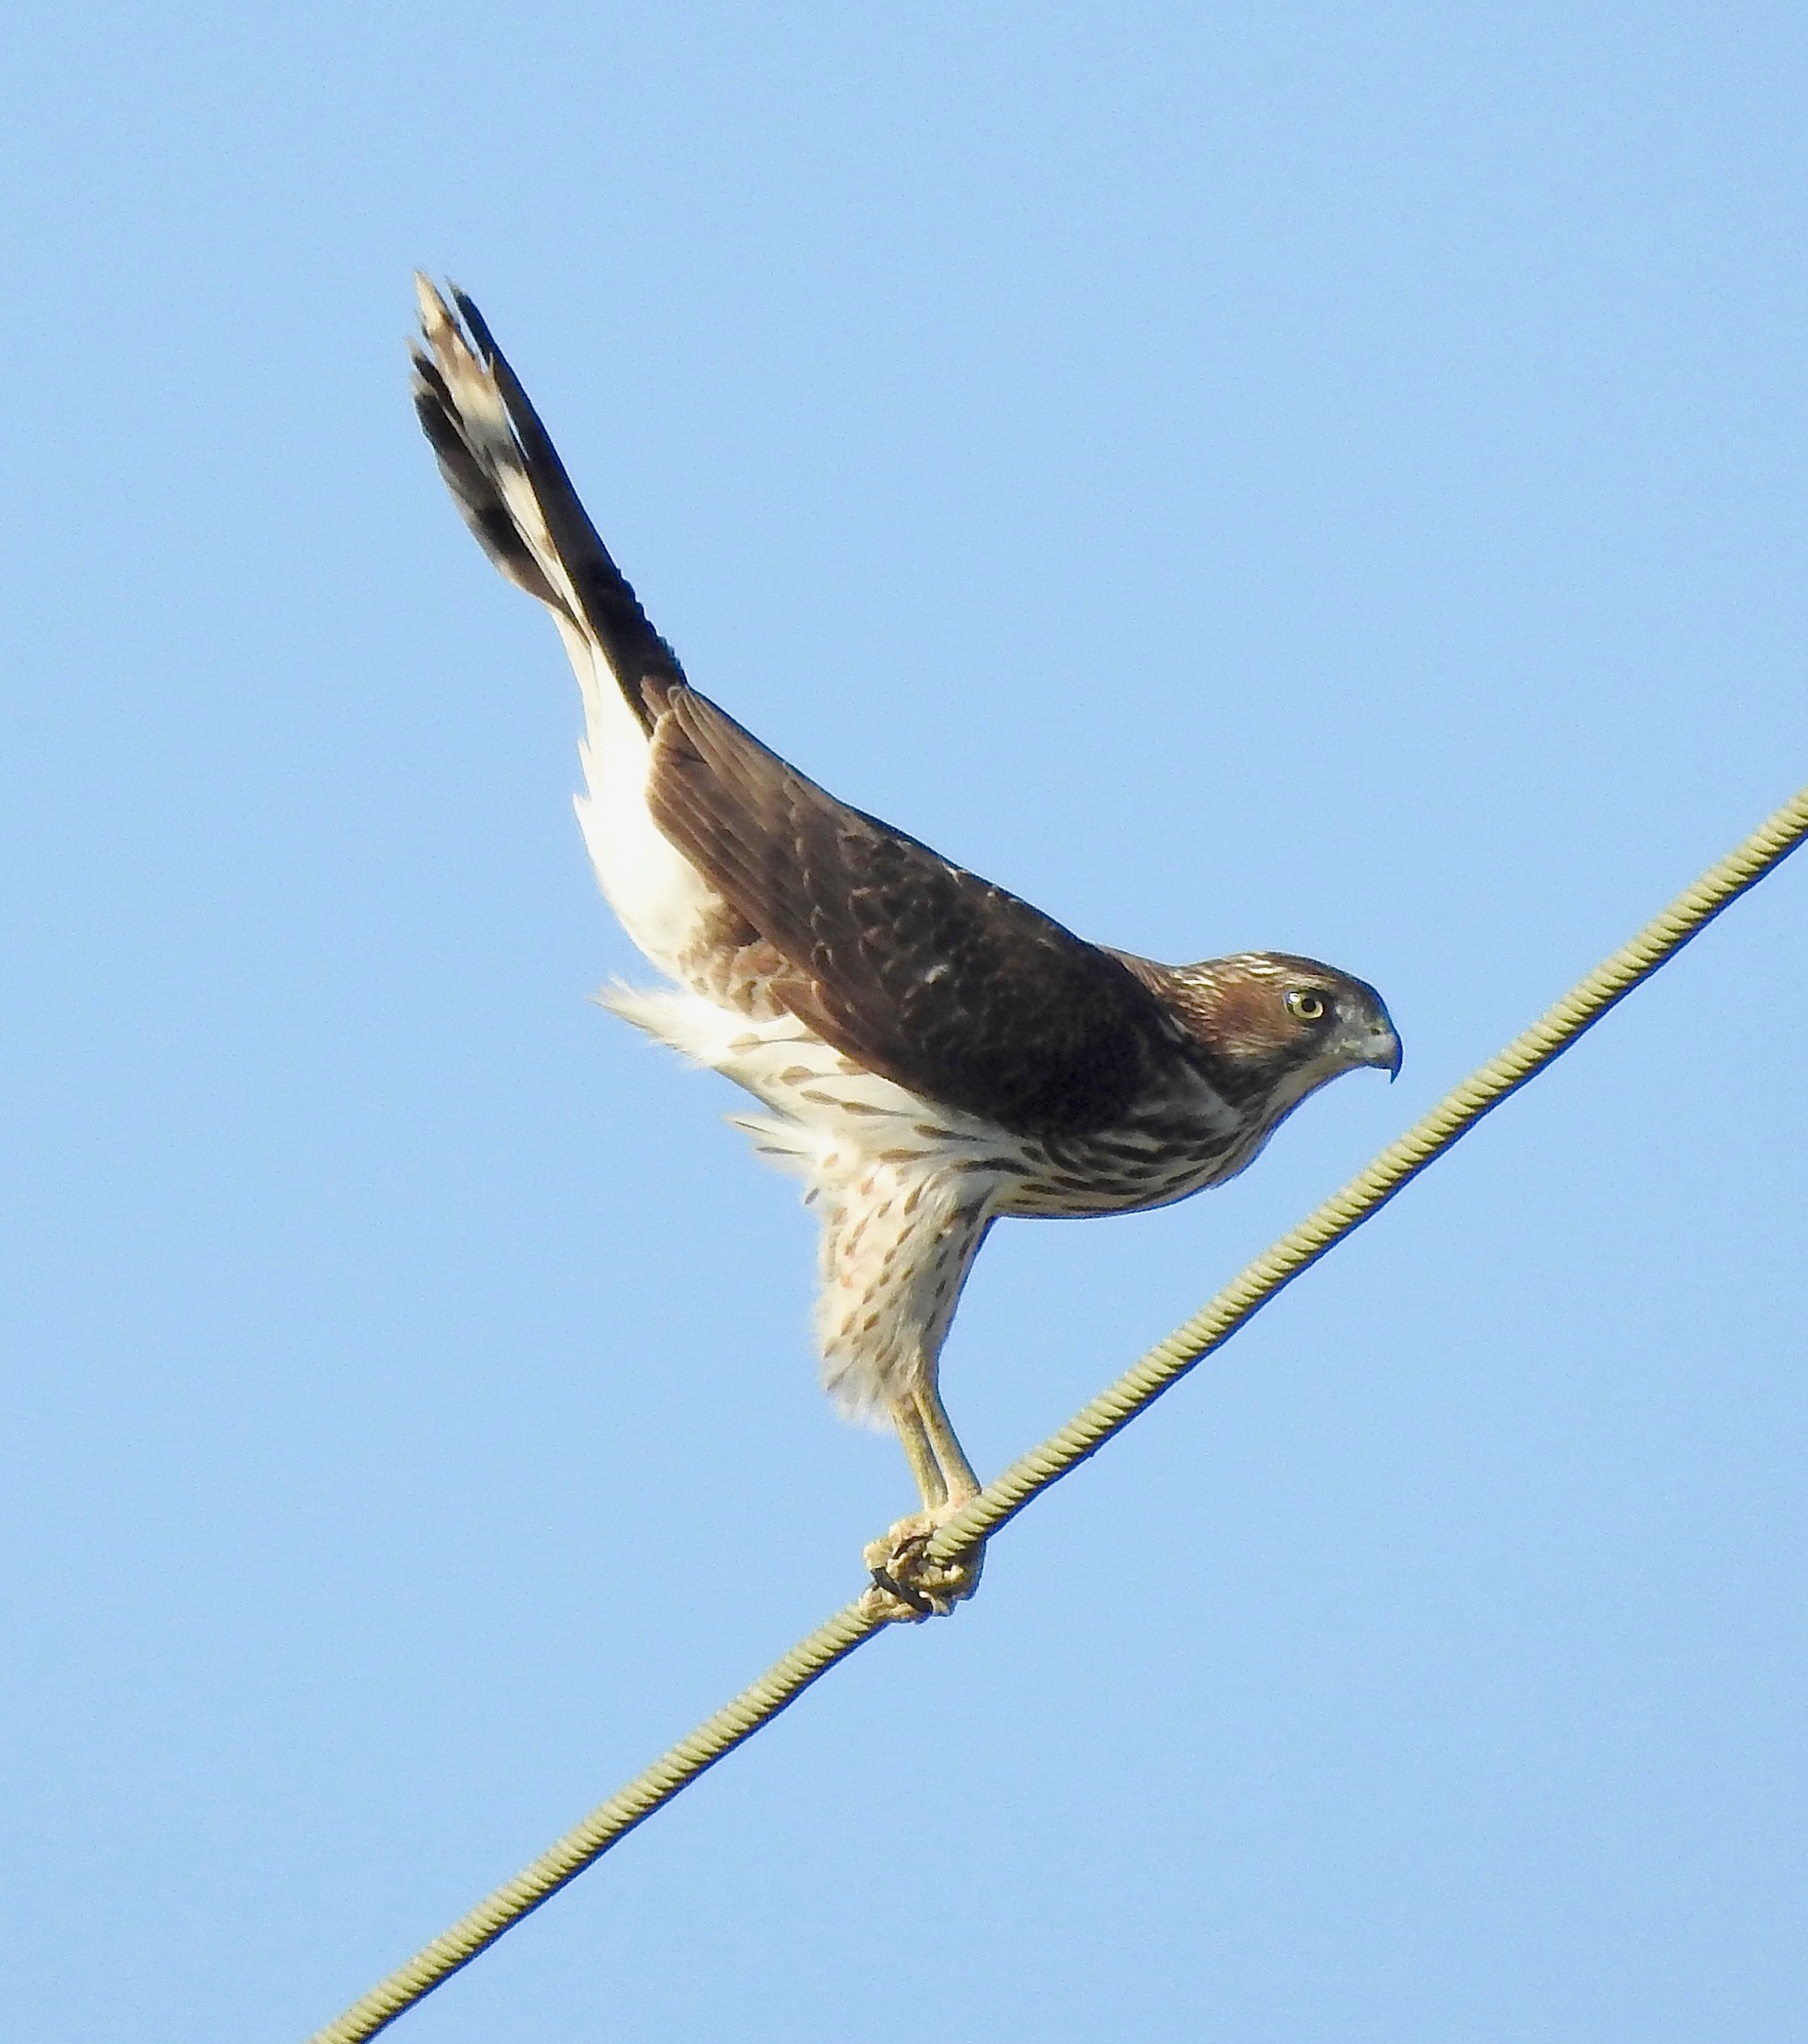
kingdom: Animalia
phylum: Chordata
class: Aves
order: Accipitriformes
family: Accipitridae
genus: Accipiter
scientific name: Accipiter cooperii
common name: Cooper's hawk
